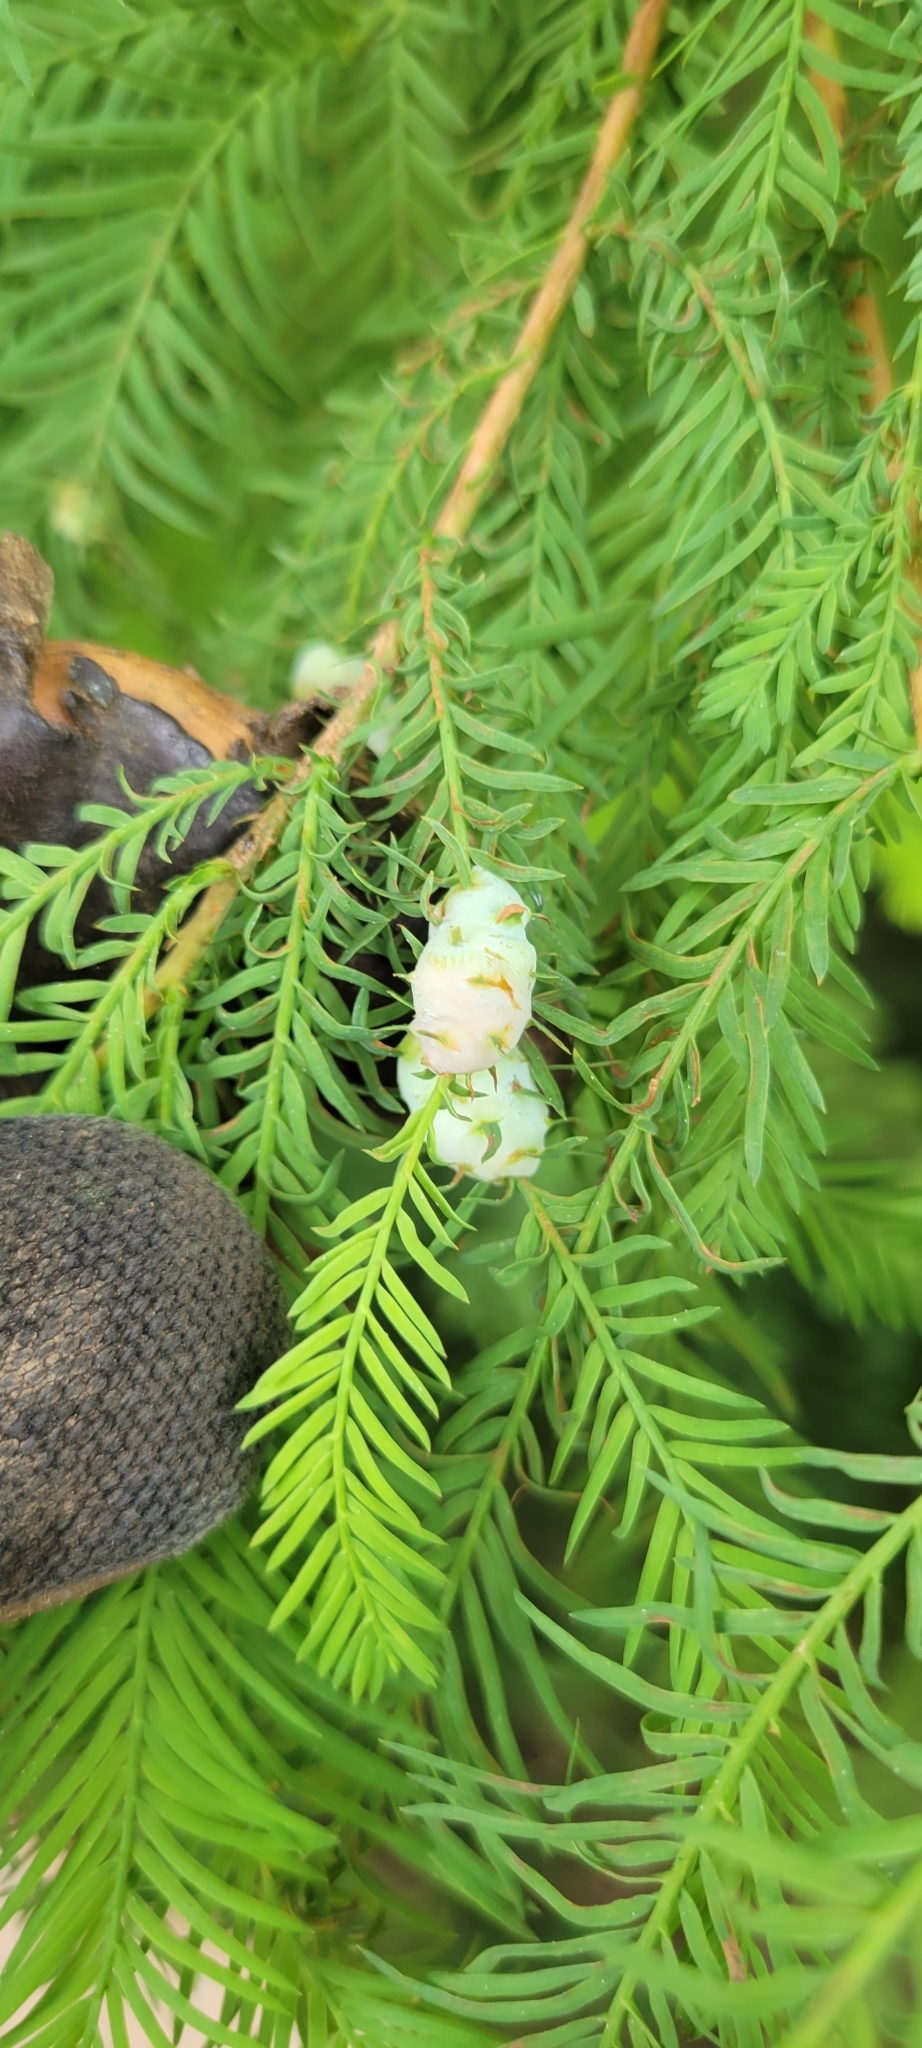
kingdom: Animalia
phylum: Arthropoda
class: Insecta
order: Diptera
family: Cecidomyiidae
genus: Taxodiomyia
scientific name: Taxodiomyia cupressiananassa
